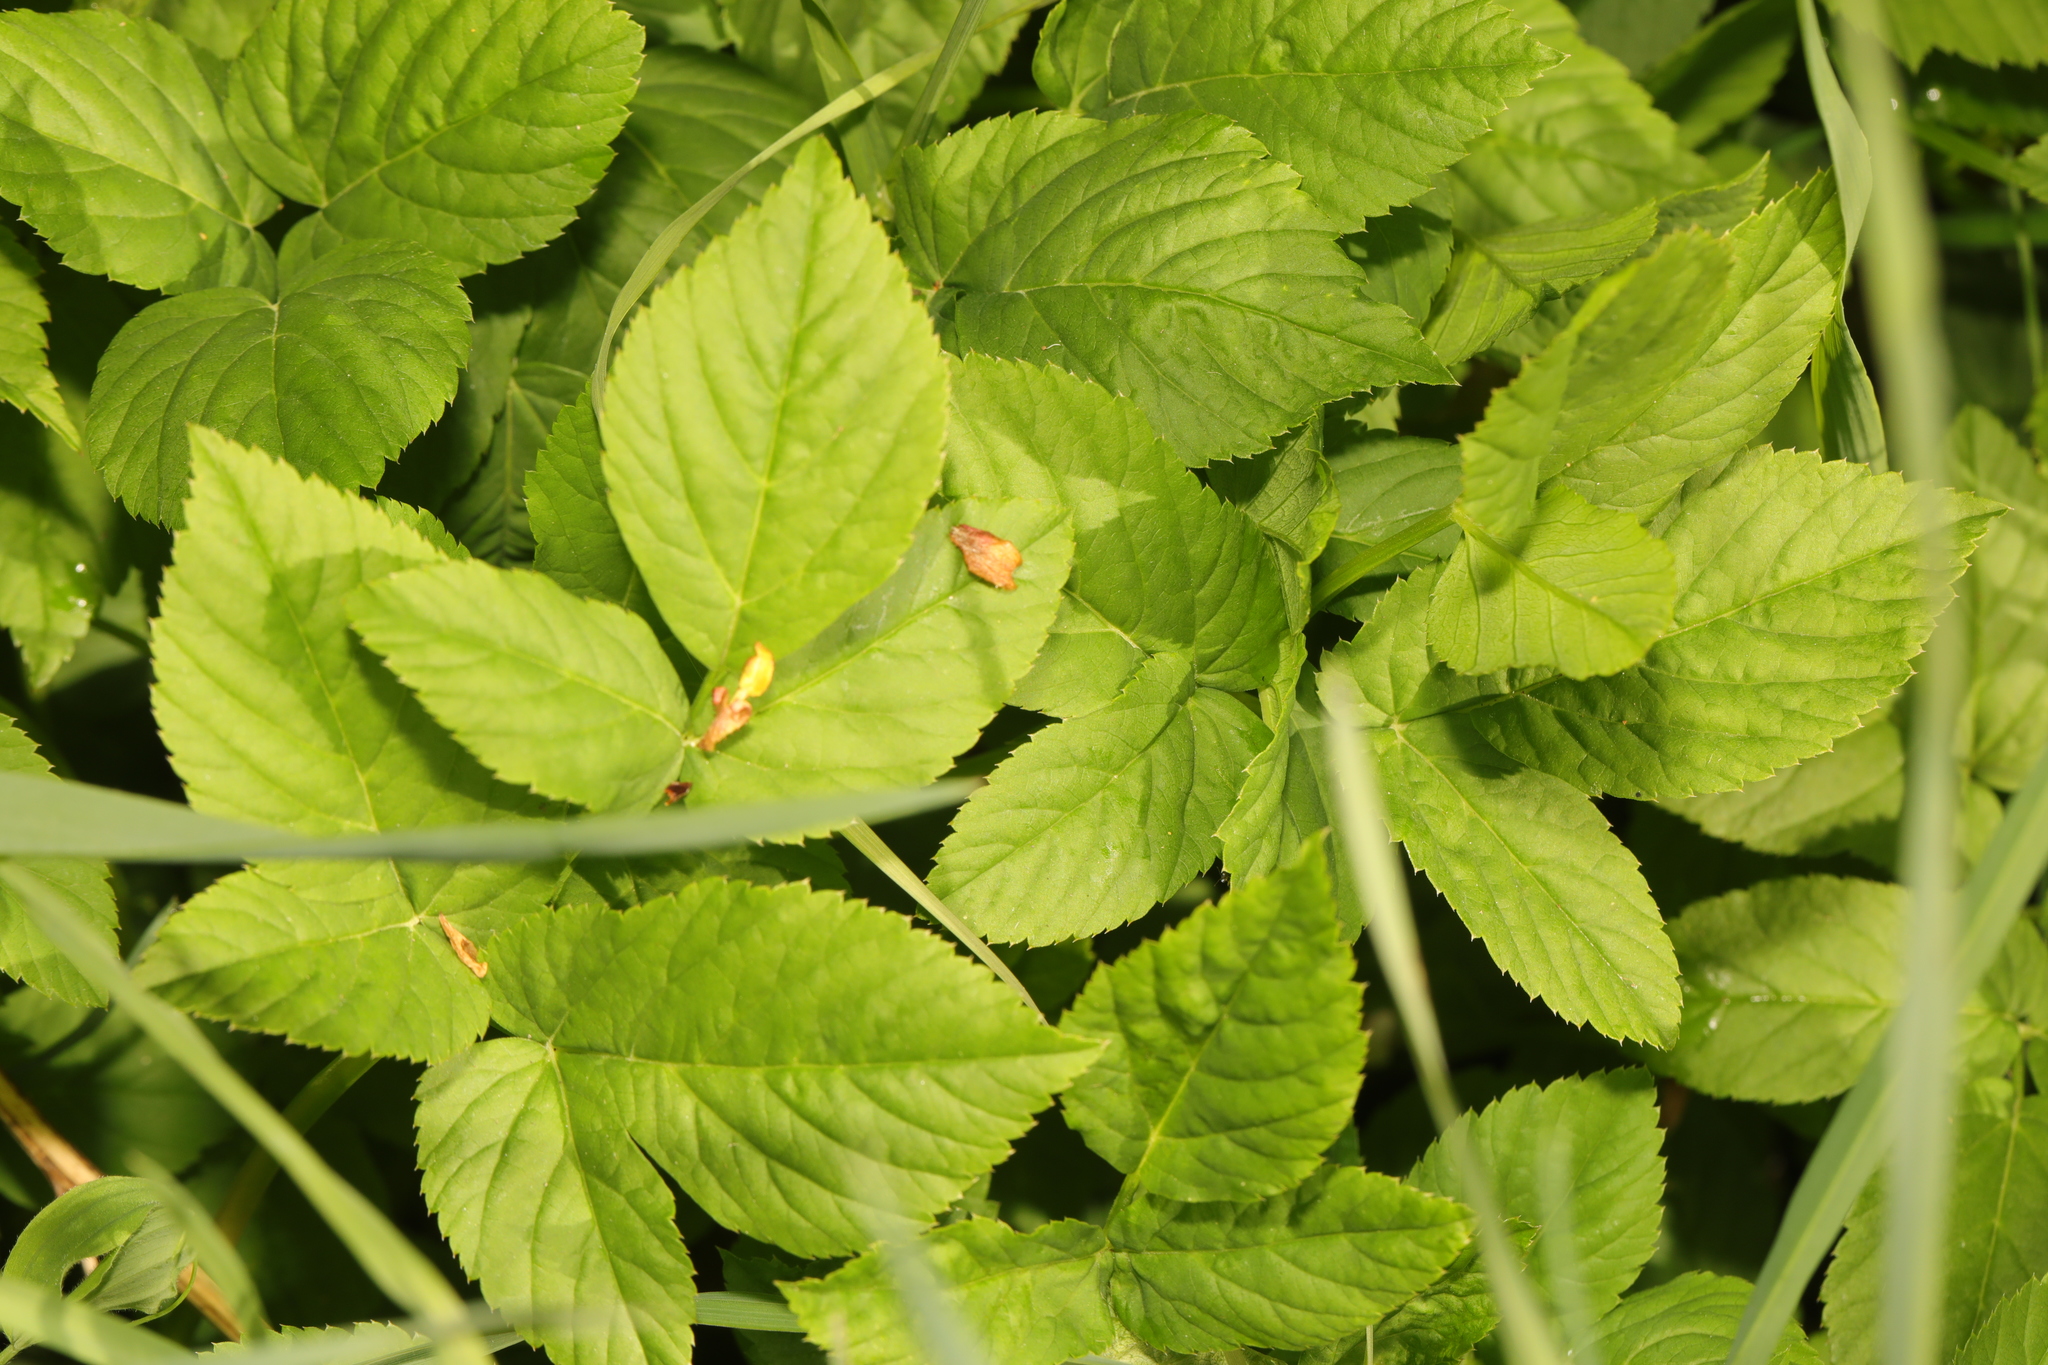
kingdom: Plantae
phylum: Tracheophyta
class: Magnoliopsida
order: Apiales
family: Apiaceae
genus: Aegopodium
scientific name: Aegopodium podagraria
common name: Ground-elder
